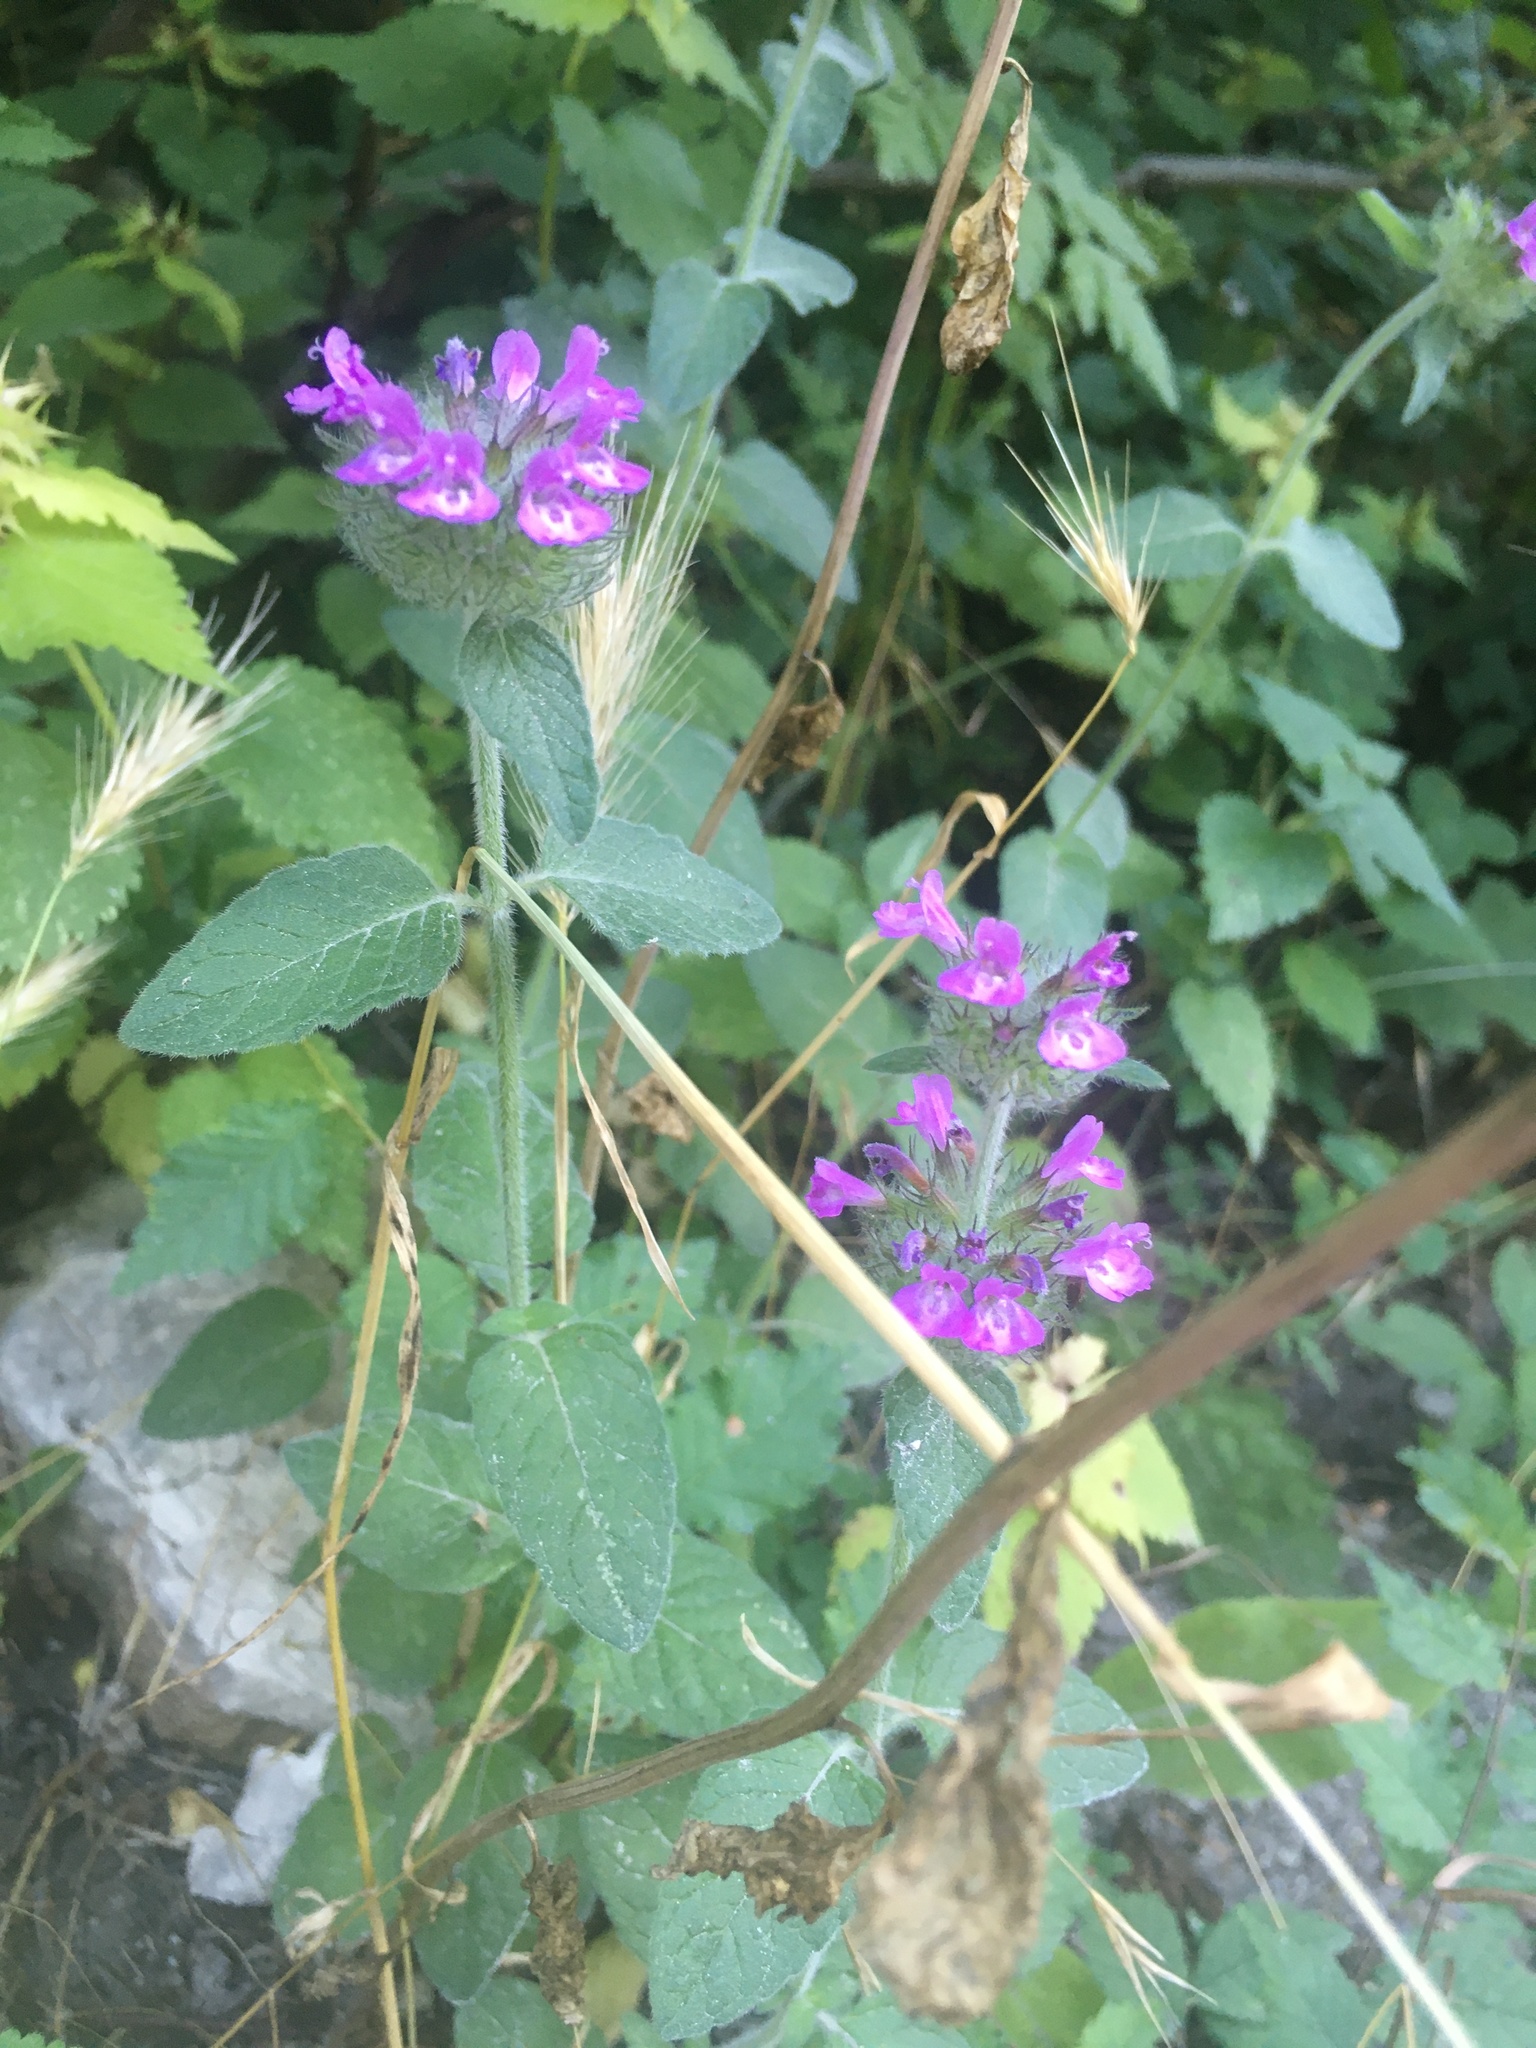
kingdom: Plantae
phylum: Tracheophyta
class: Magnoliopsida
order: Lamiales
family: Lamiaceae
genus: Clinopodium
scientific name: Clinopodium vulgare
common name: Wild basil
